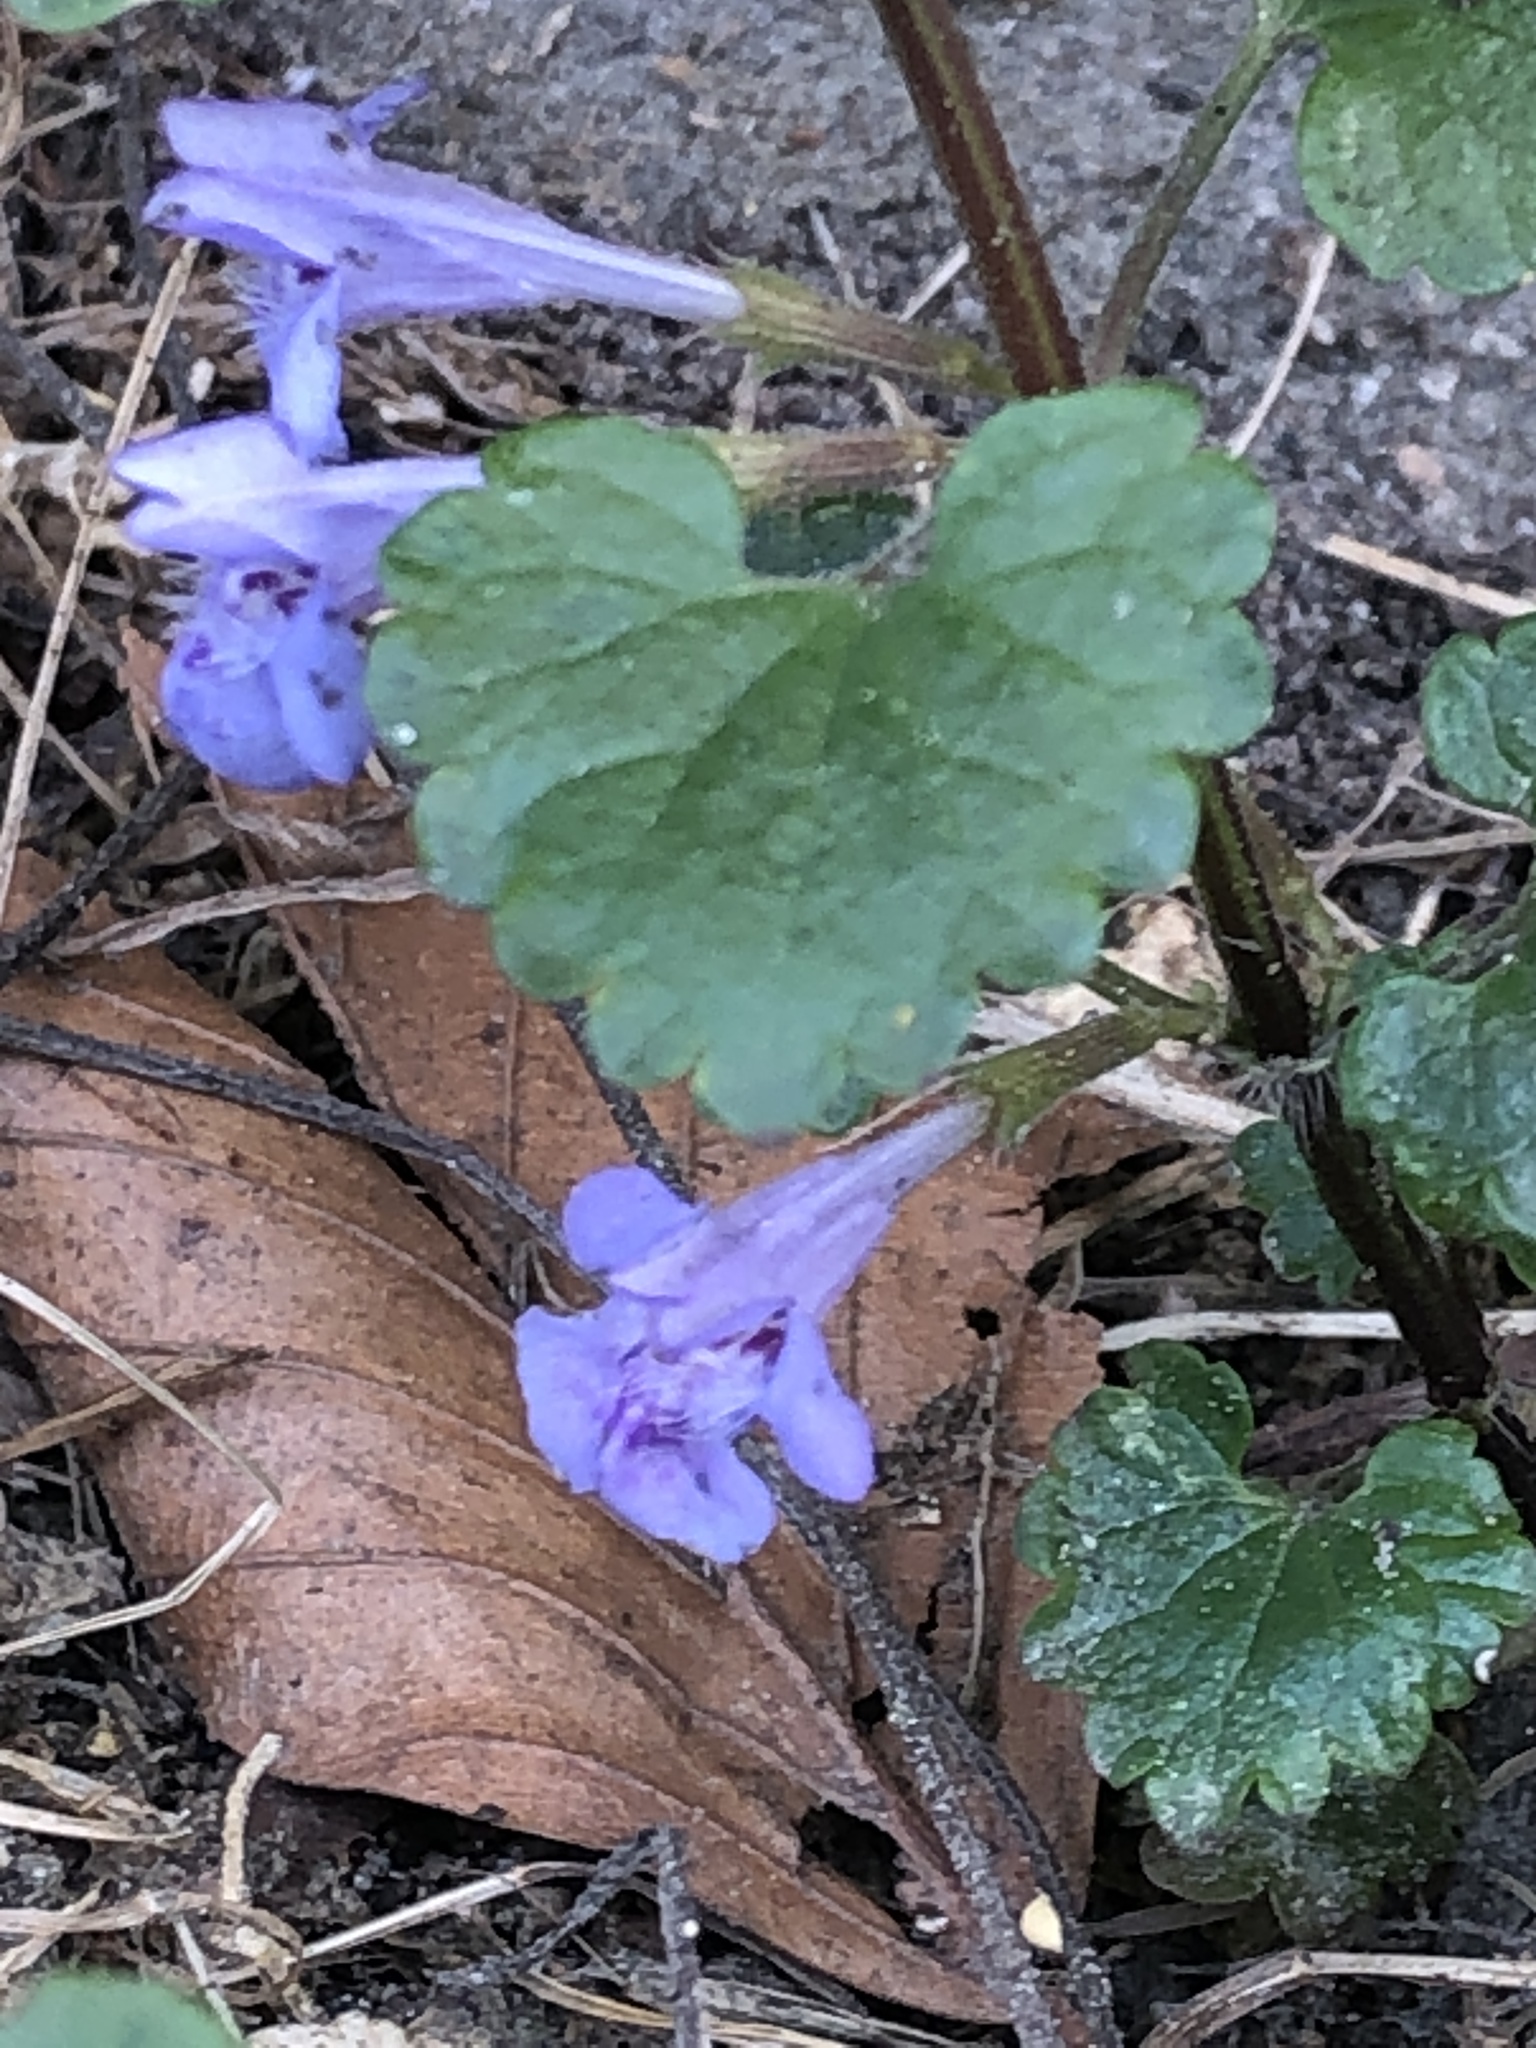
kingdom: Plantae
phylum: Tracheophyta
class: Magnoliopsida
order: Lamiales
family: Lamiaceae
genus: Glechoma
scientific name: Glechoma hederacea
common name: Ground ivy
